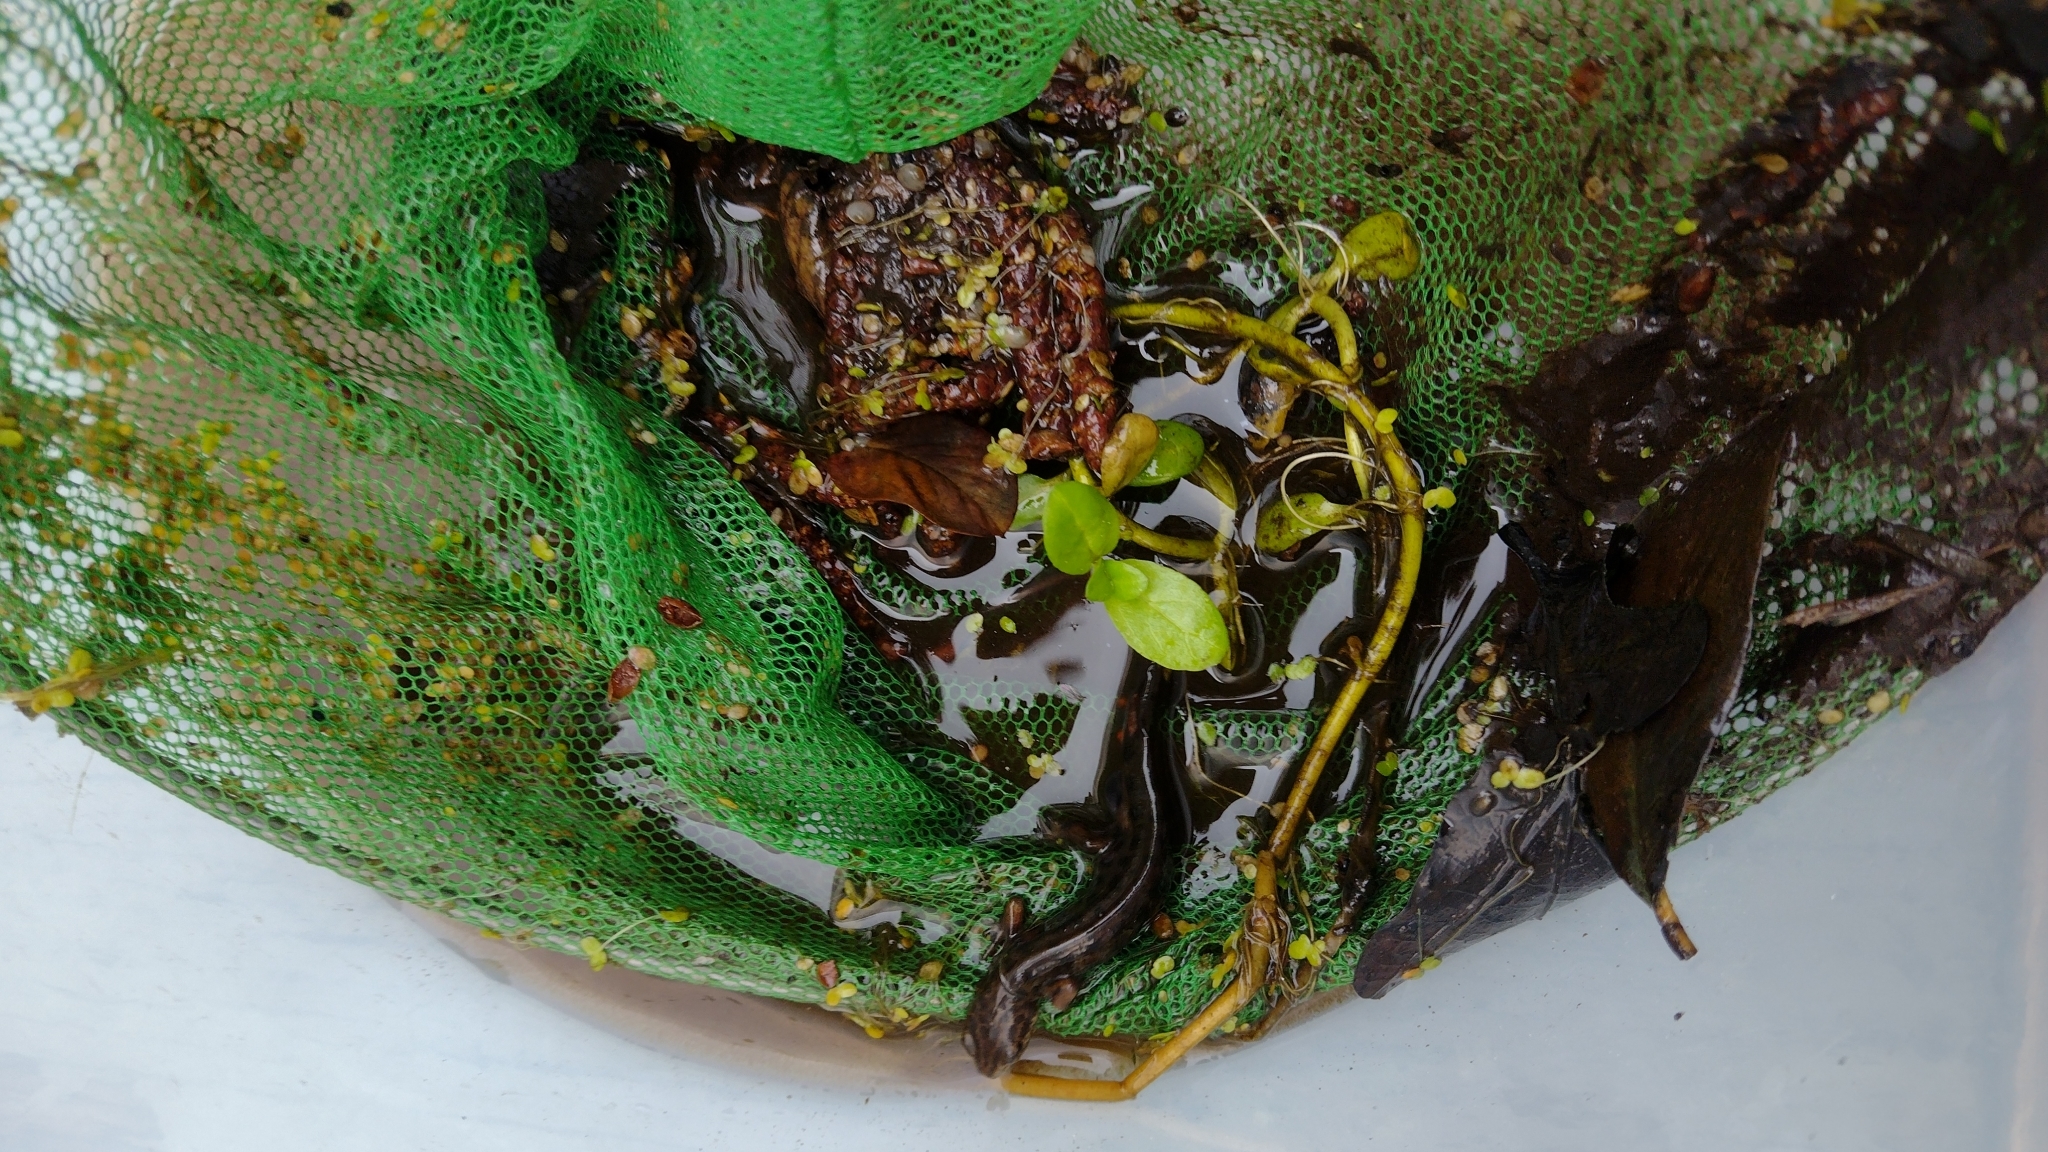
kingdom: Animalia
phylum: Chordata
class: Amphibia
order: Caudata
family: Salamandridae
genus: Lissotriton
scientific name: Lissotriton vulgaris
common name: Smooth newt
